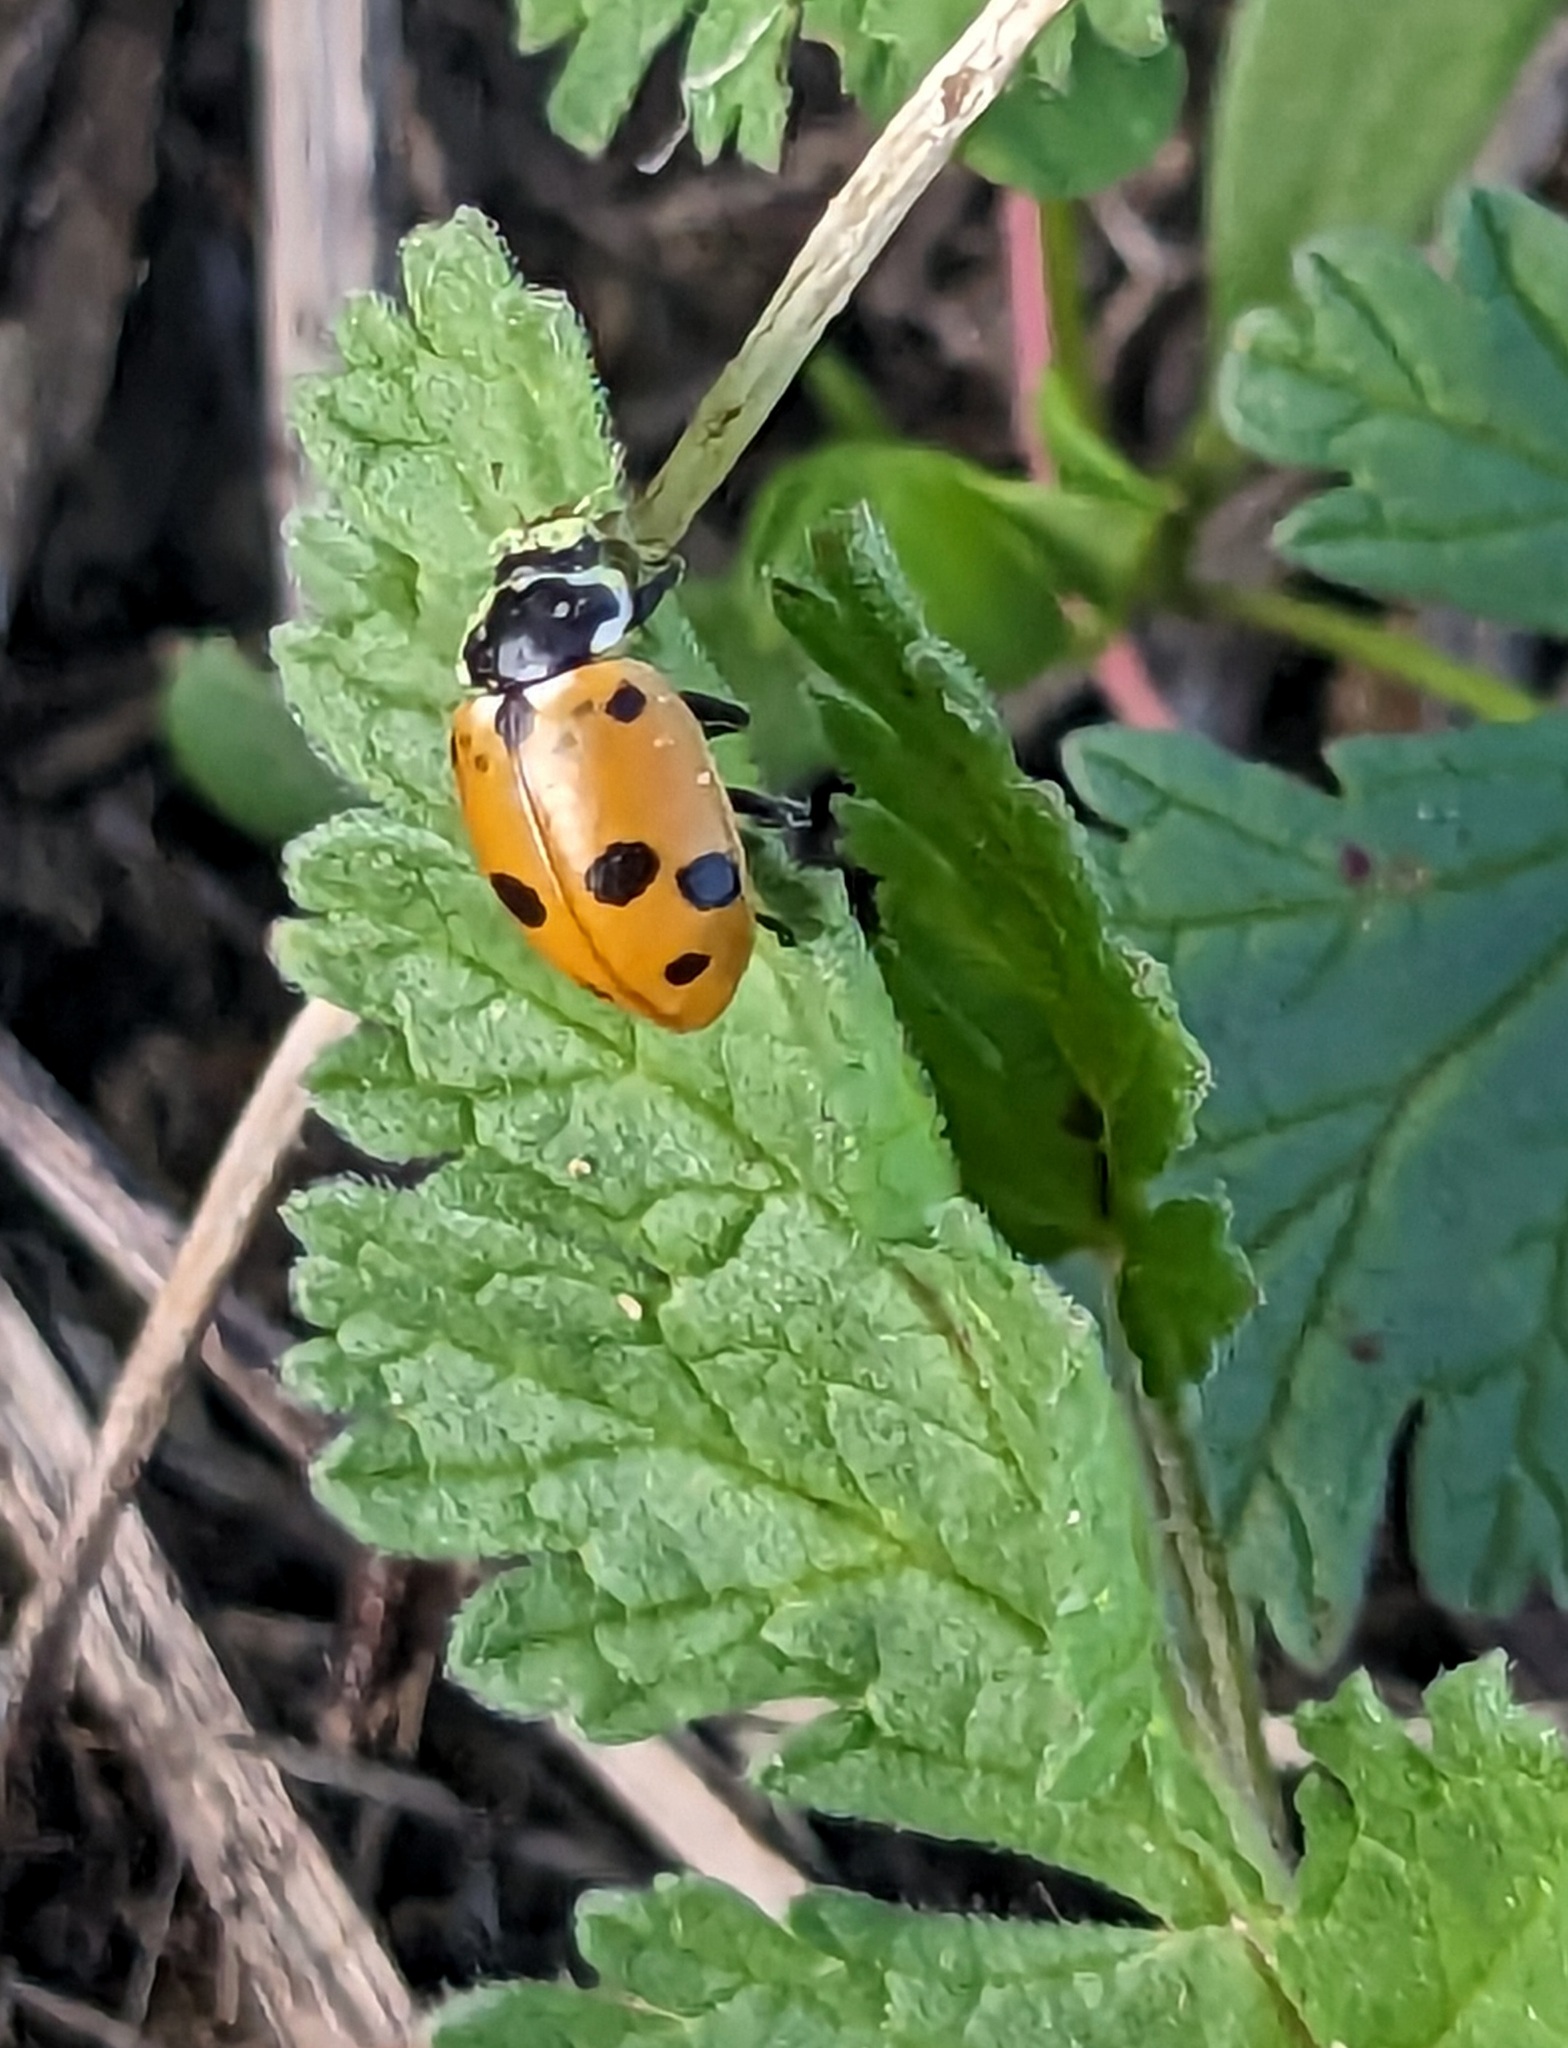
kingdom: Animalia
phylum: Arthropoda
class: Insecta
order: Coleoptera
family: Coccinellidae
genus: Hippodamia
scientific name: Hippodamia variegata
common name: Ladybird beetle
